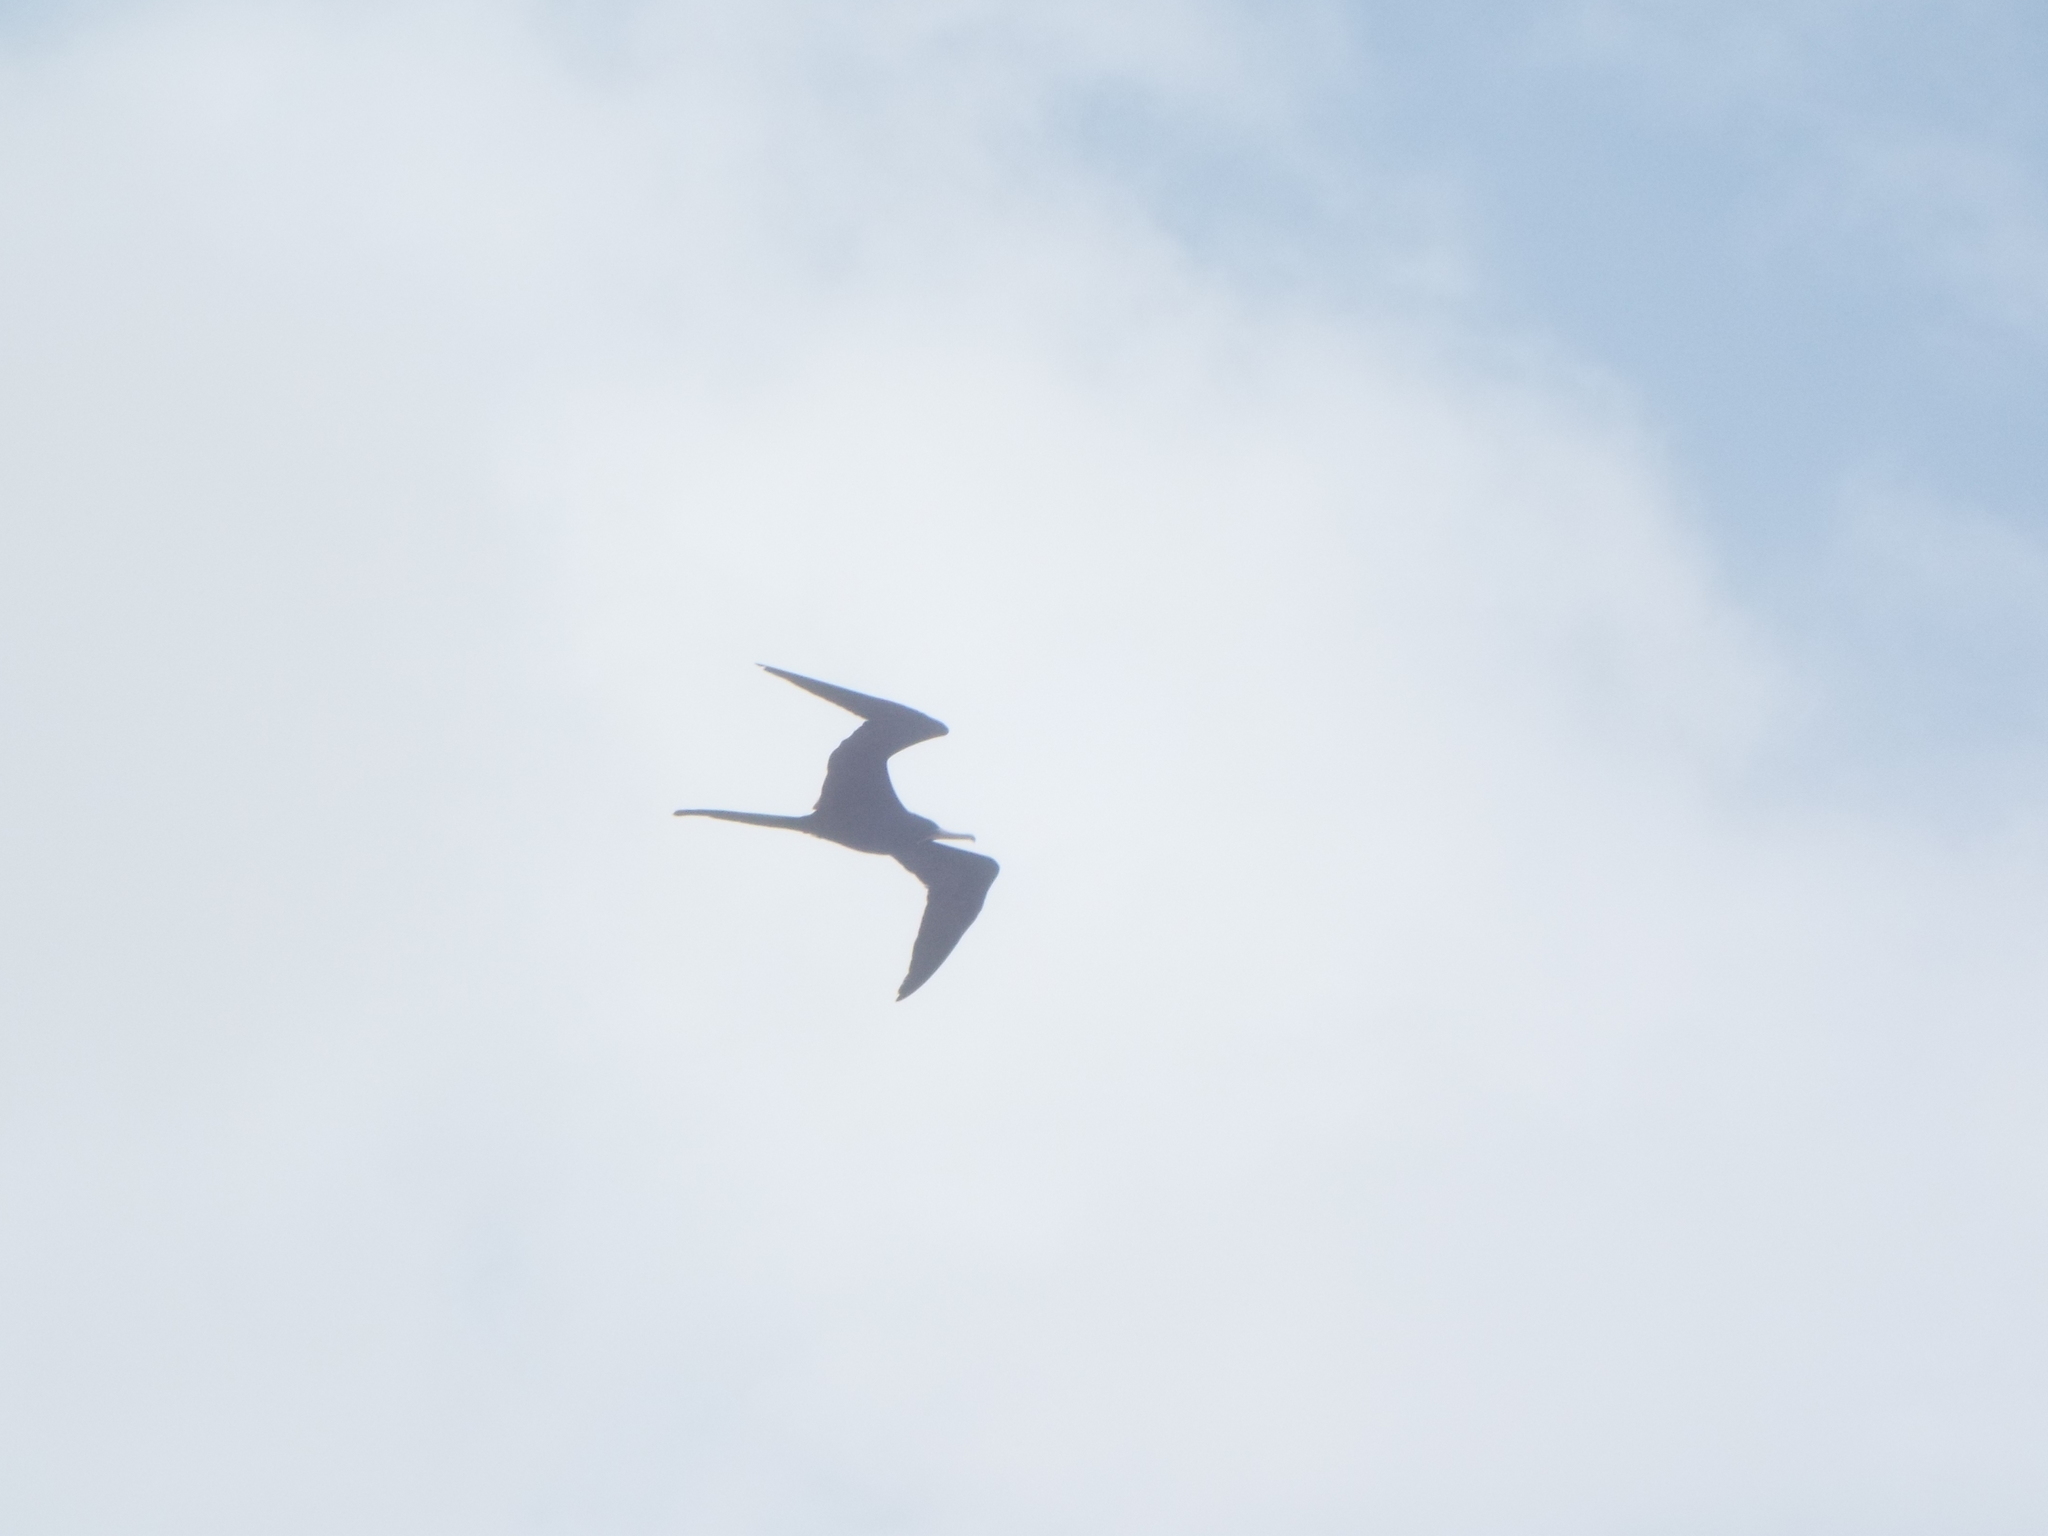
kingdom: Animalia
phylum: Chordata
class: Aves
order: Suliformes
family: Fregatidae
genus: Fregata
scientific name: Fregata magnificens
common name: Magnificent frigatebird
